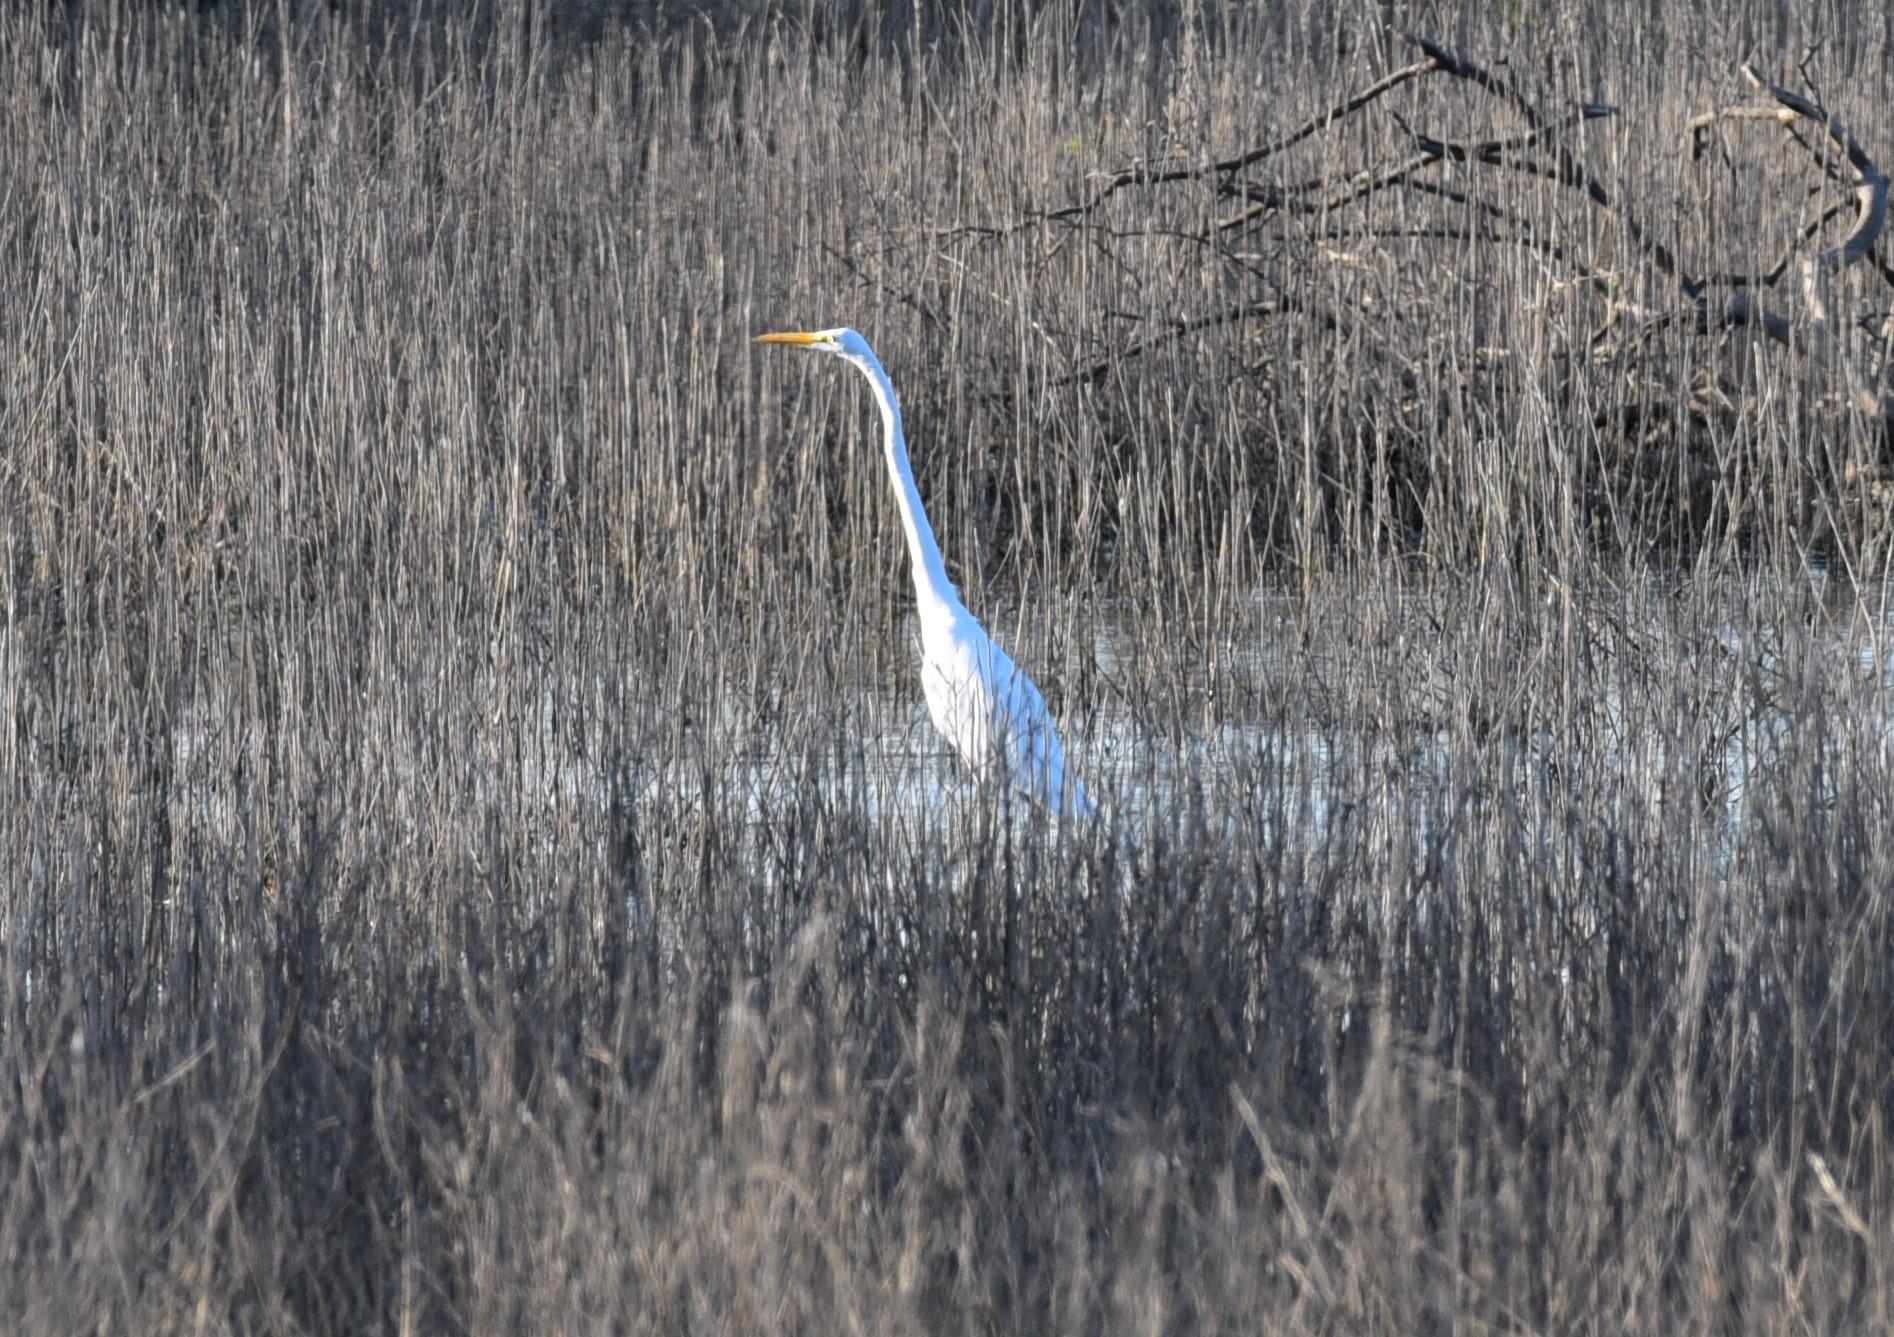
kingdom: Animalia
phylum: Chordata
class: Aves
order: Pelecaniformes
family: Ardeidae
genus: Ardea
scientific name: Ardea alba
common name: Great egret
